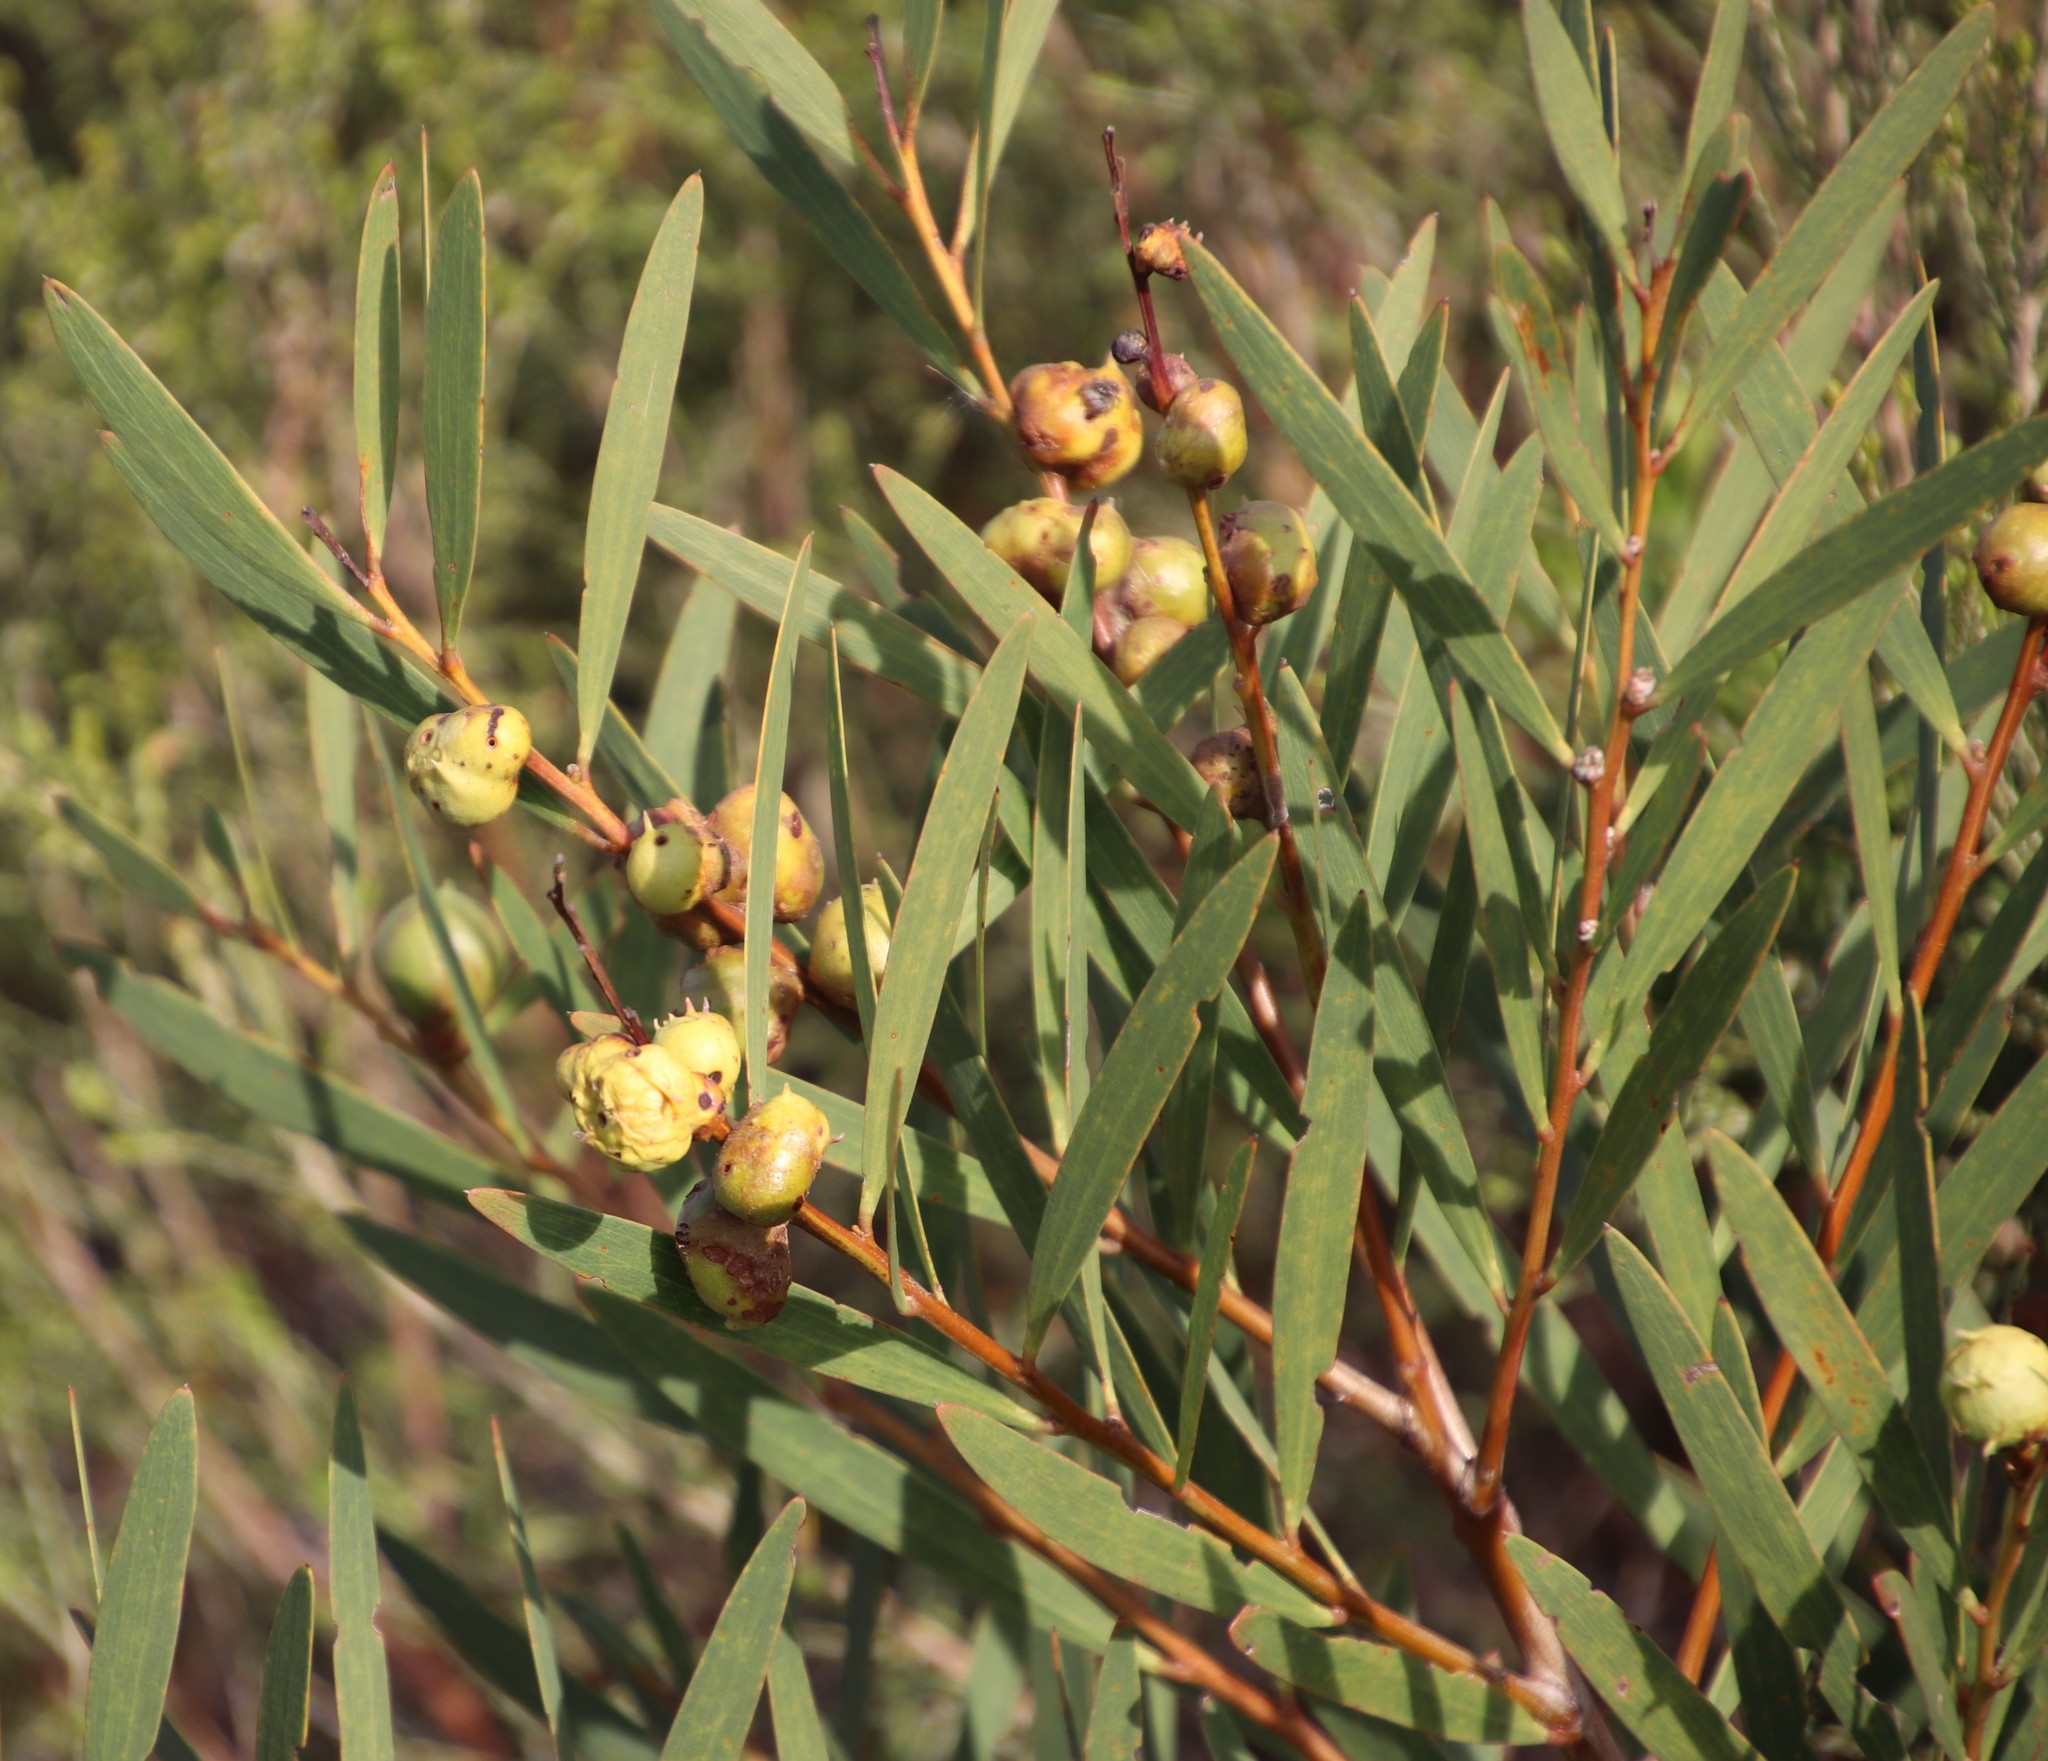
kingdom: Plantae
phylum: Tracheophyta
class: Magnoliopsida
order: Fabales
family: Fabaceae
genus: Acacia
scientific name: Acacia longifolia
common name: Sydney golden wattle
